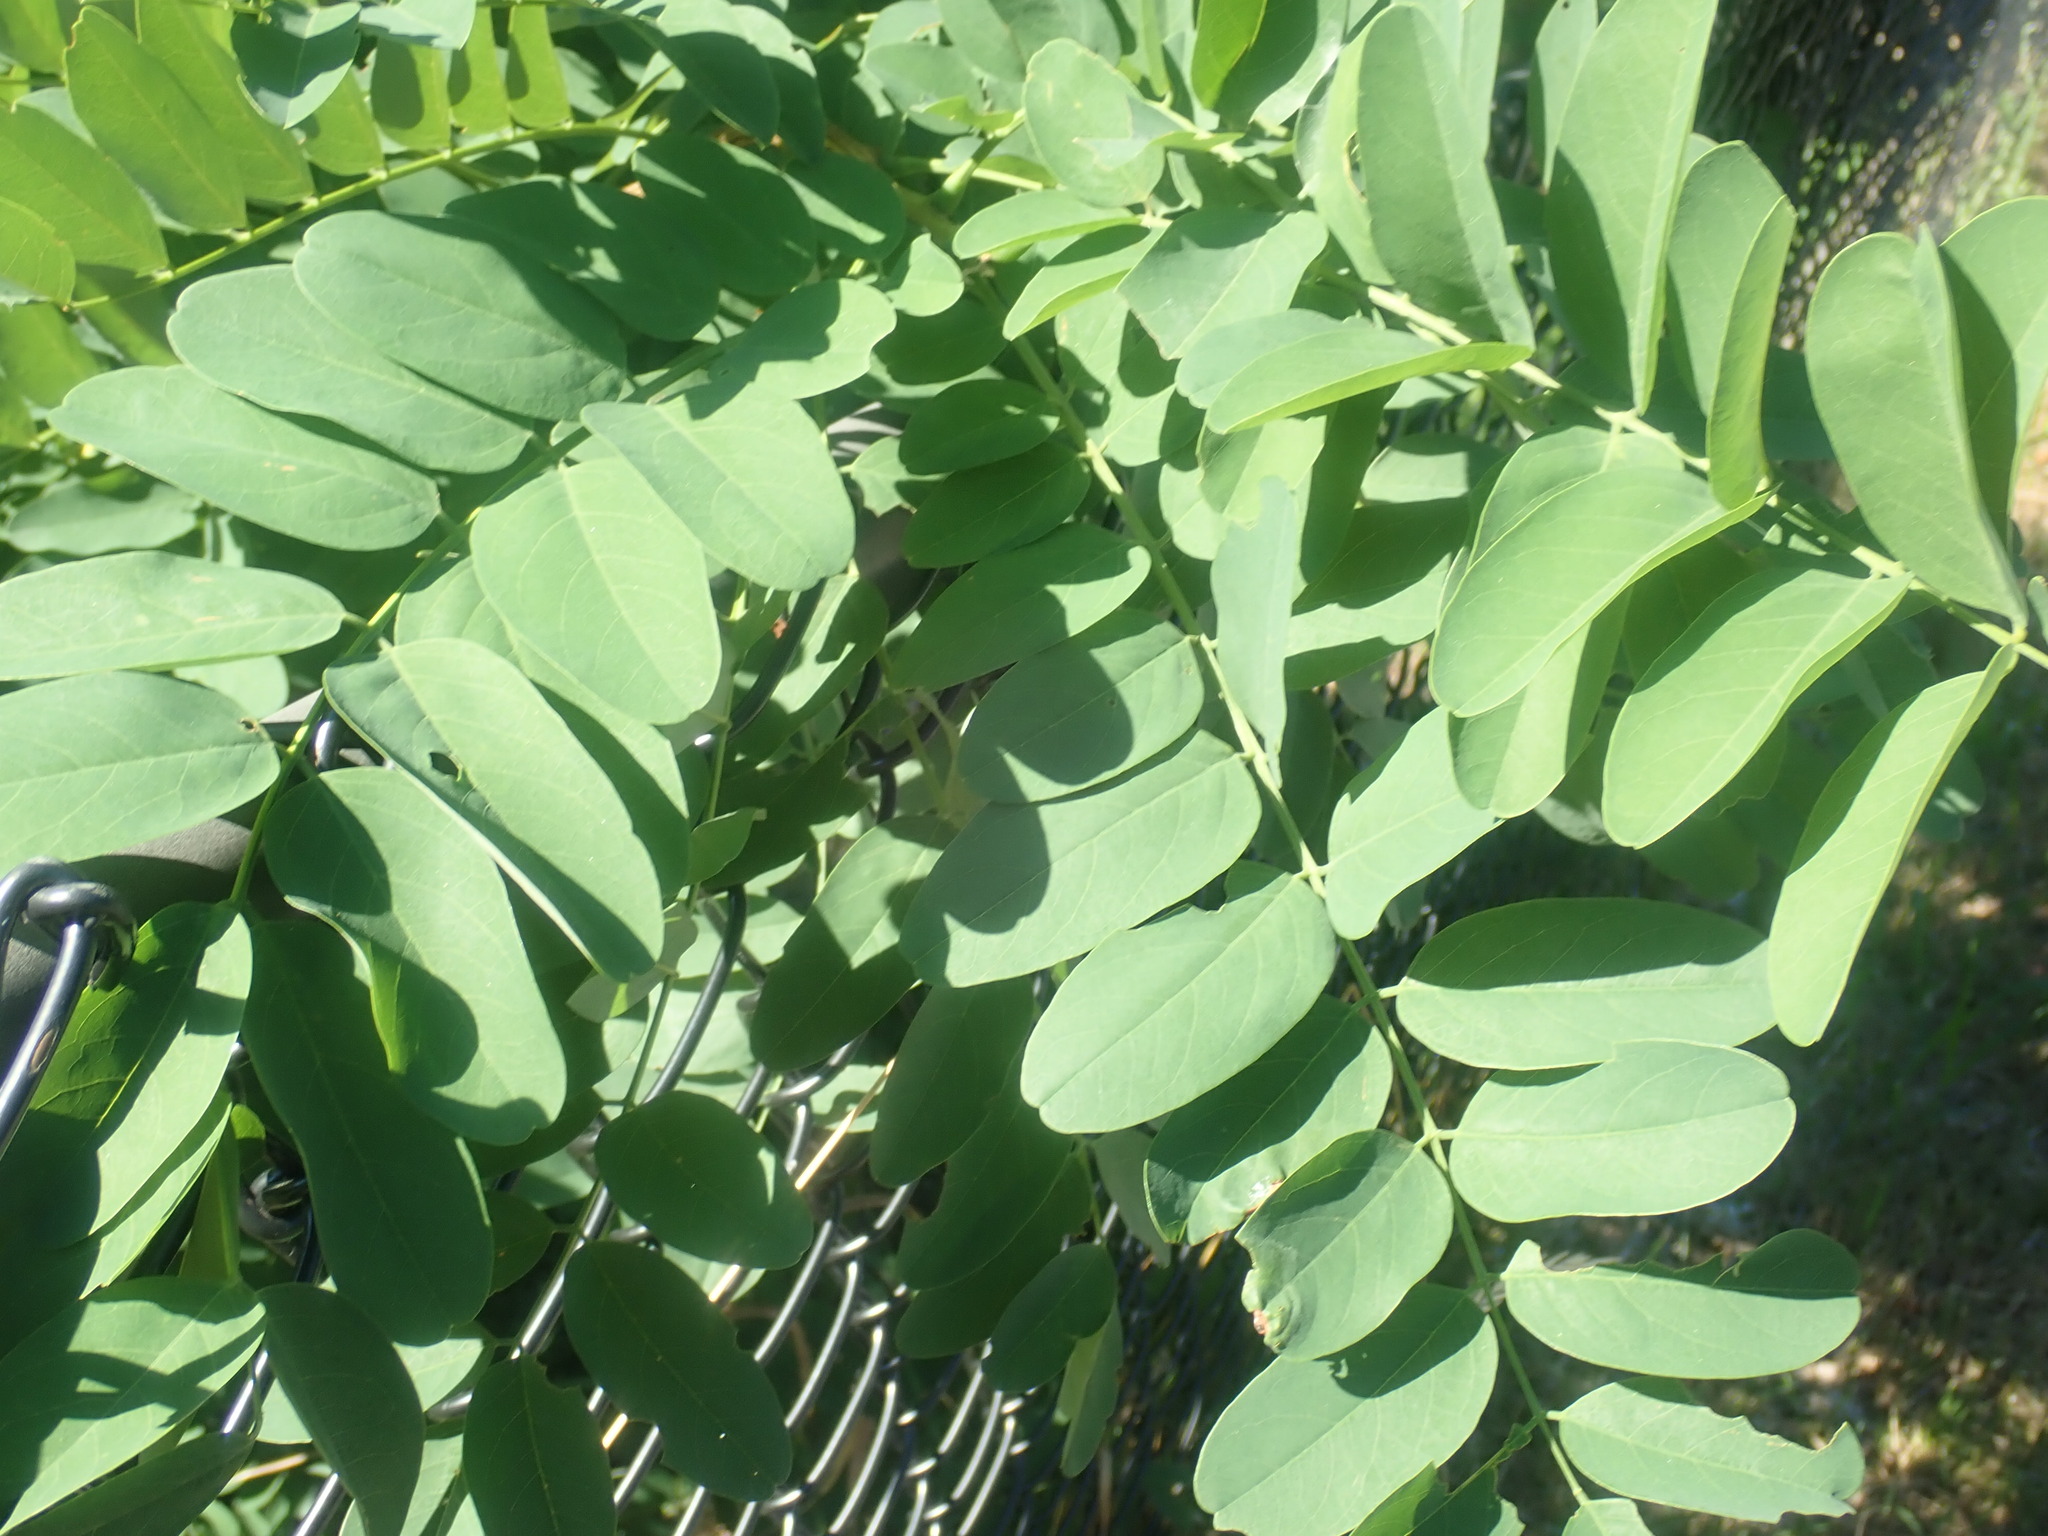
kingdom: Plantae
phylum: Tracheophyta
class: Magnoliopsida
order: Fabales
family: Fabaceae
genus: Robinia
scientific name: Robinia pseudoacacia
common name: Black locust
